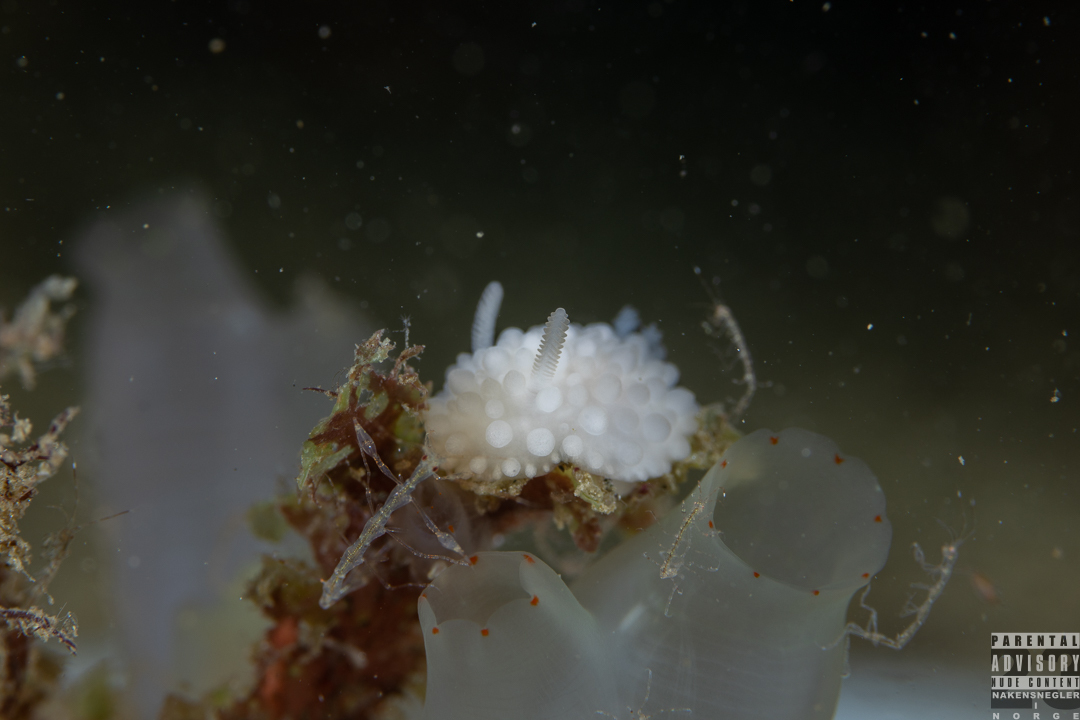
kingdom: Animalia
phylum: Mollusca
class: Gastropoda
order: Nudibranchia
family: Onchidorididae
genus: Adalaria
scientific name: Adalaria loveni
